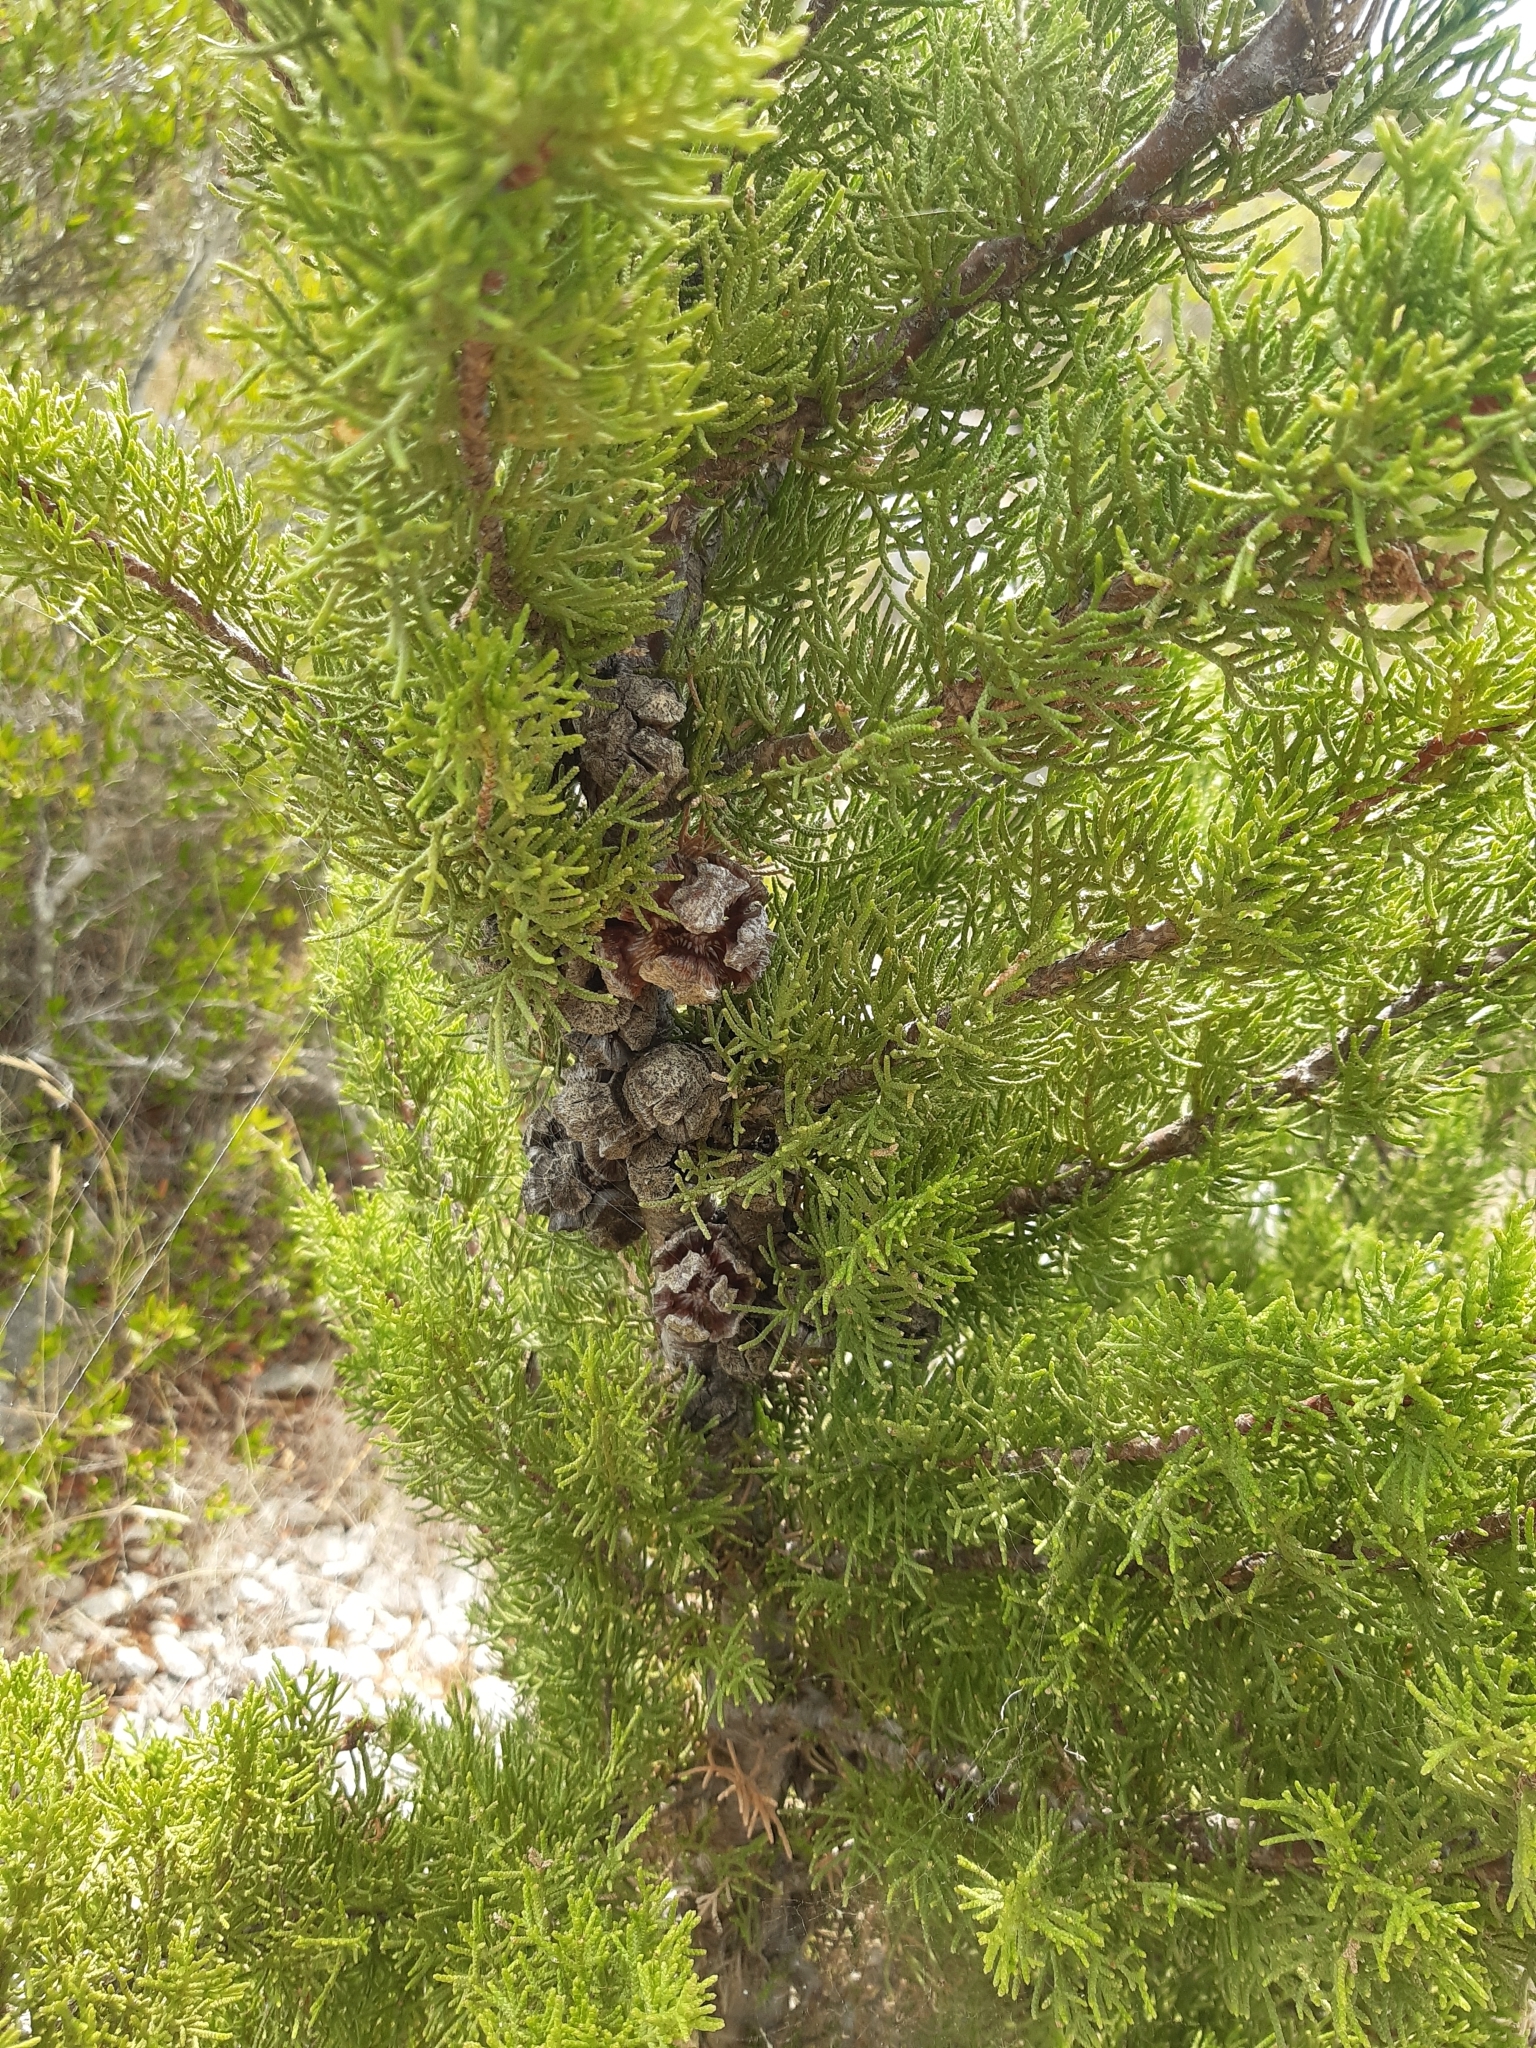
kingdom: Plantae
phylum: Tracheophyta
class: Pinopsida
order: Pinales
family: Cupressaceae
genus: Cupressus
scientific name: Cupressus sempervirens
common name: Italian cypress
